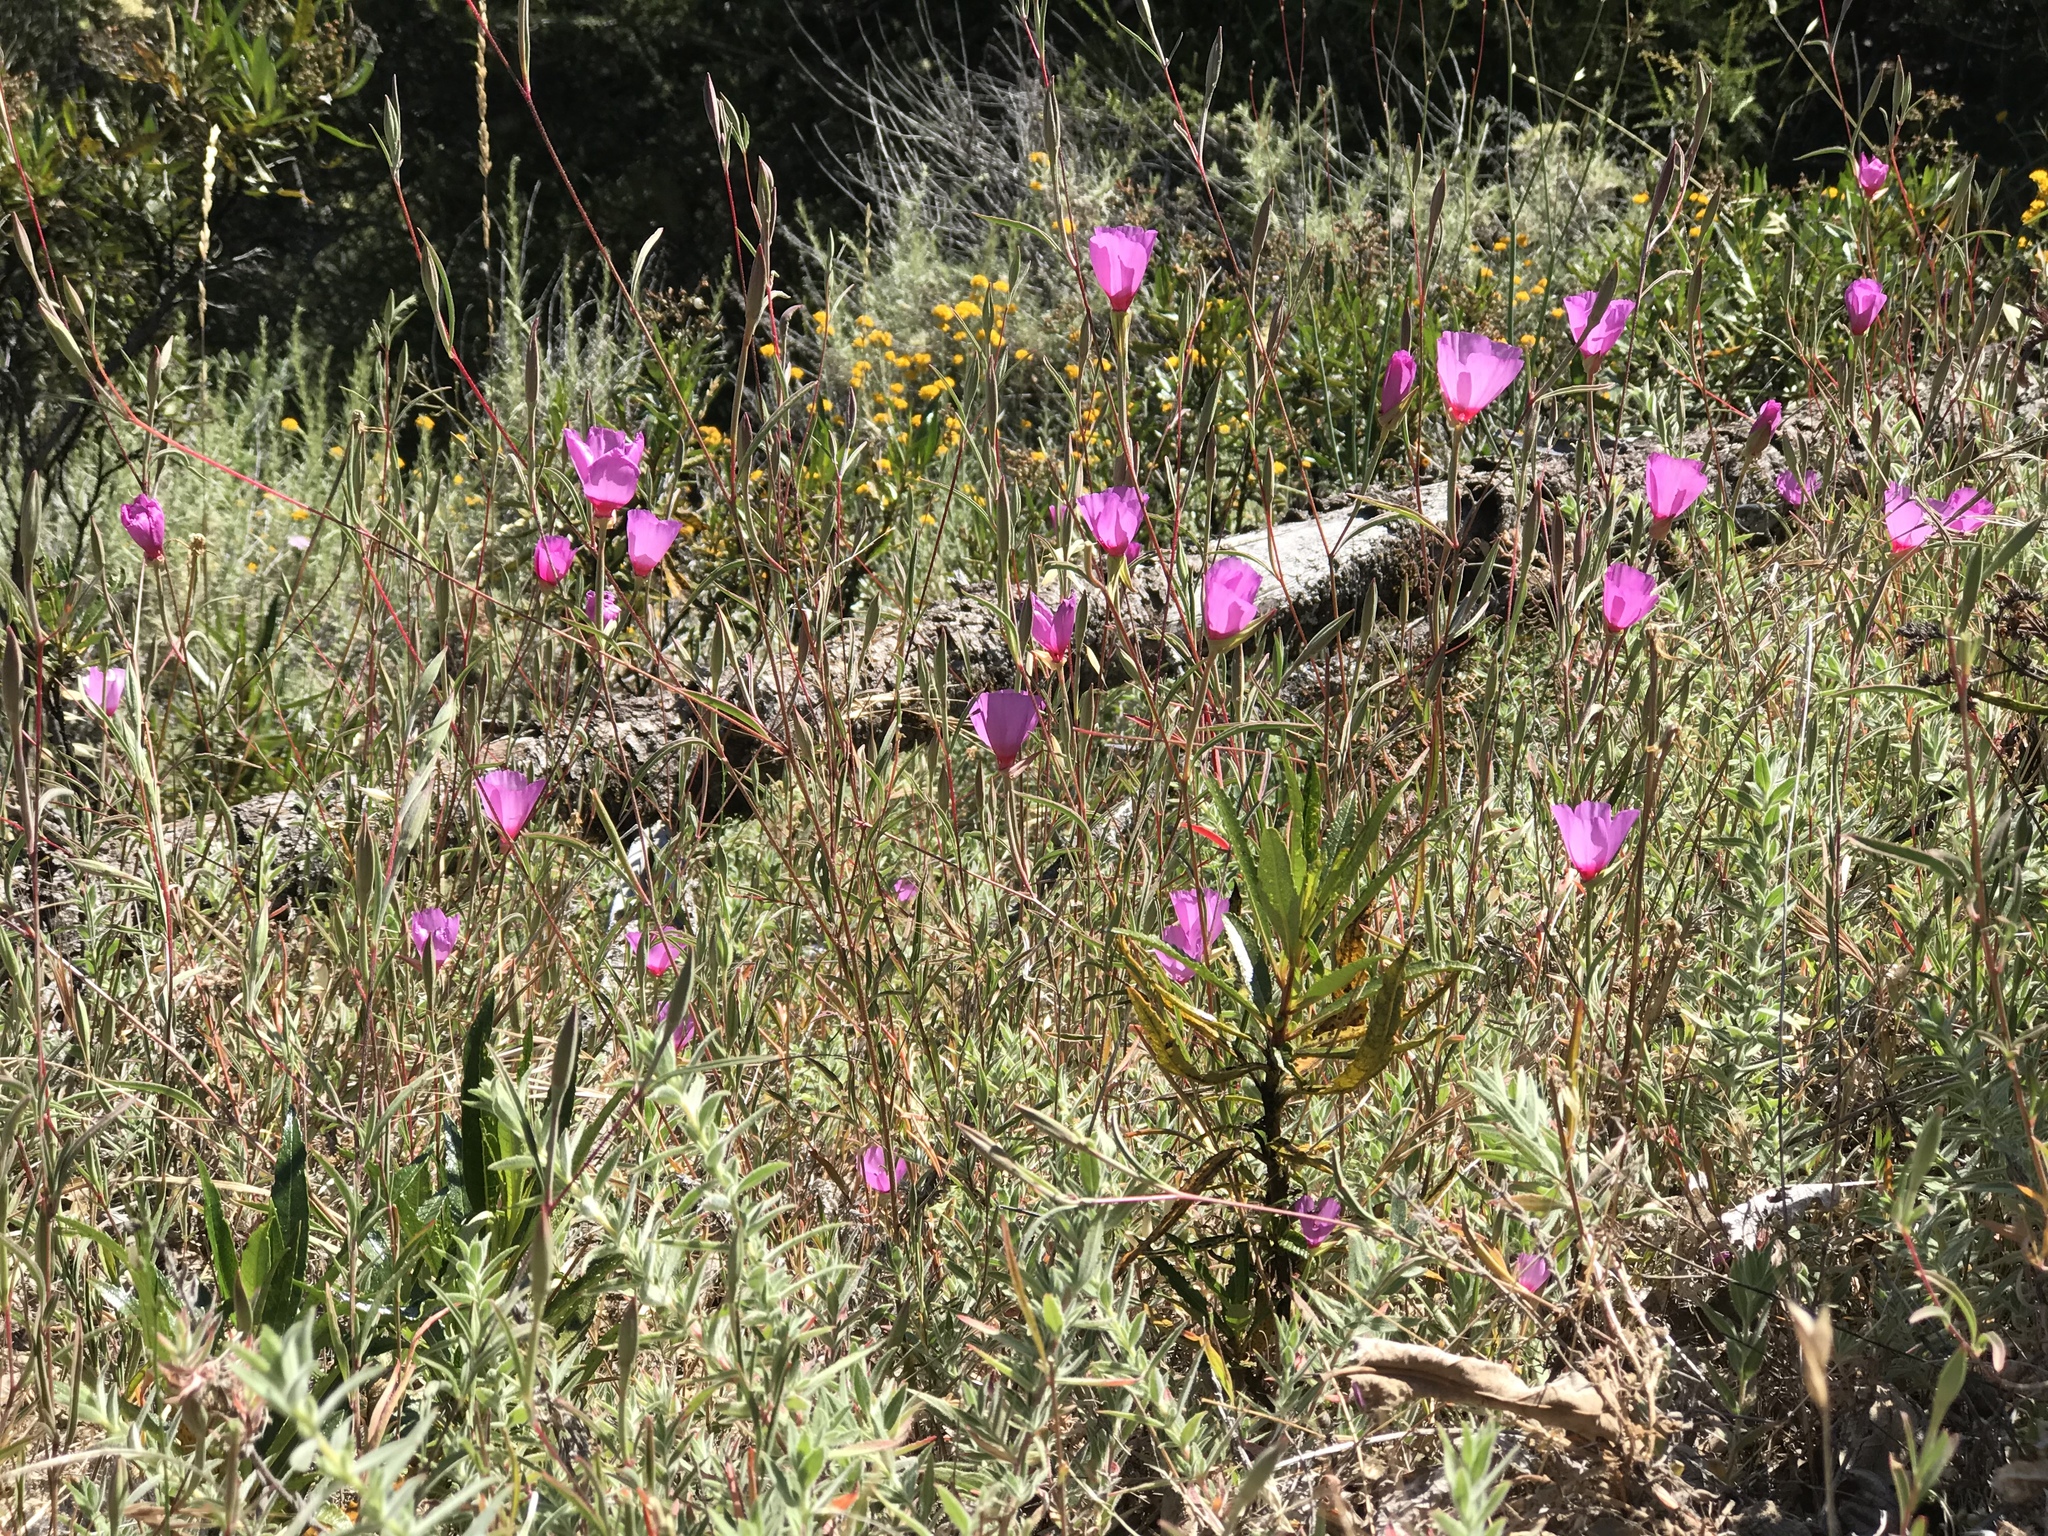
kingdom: Plantae
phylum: Tracheophyta
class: Magnoliopsida
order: Myrtales
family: Onagraceae
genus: Clarkia
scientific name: Clarkia rubicunda
